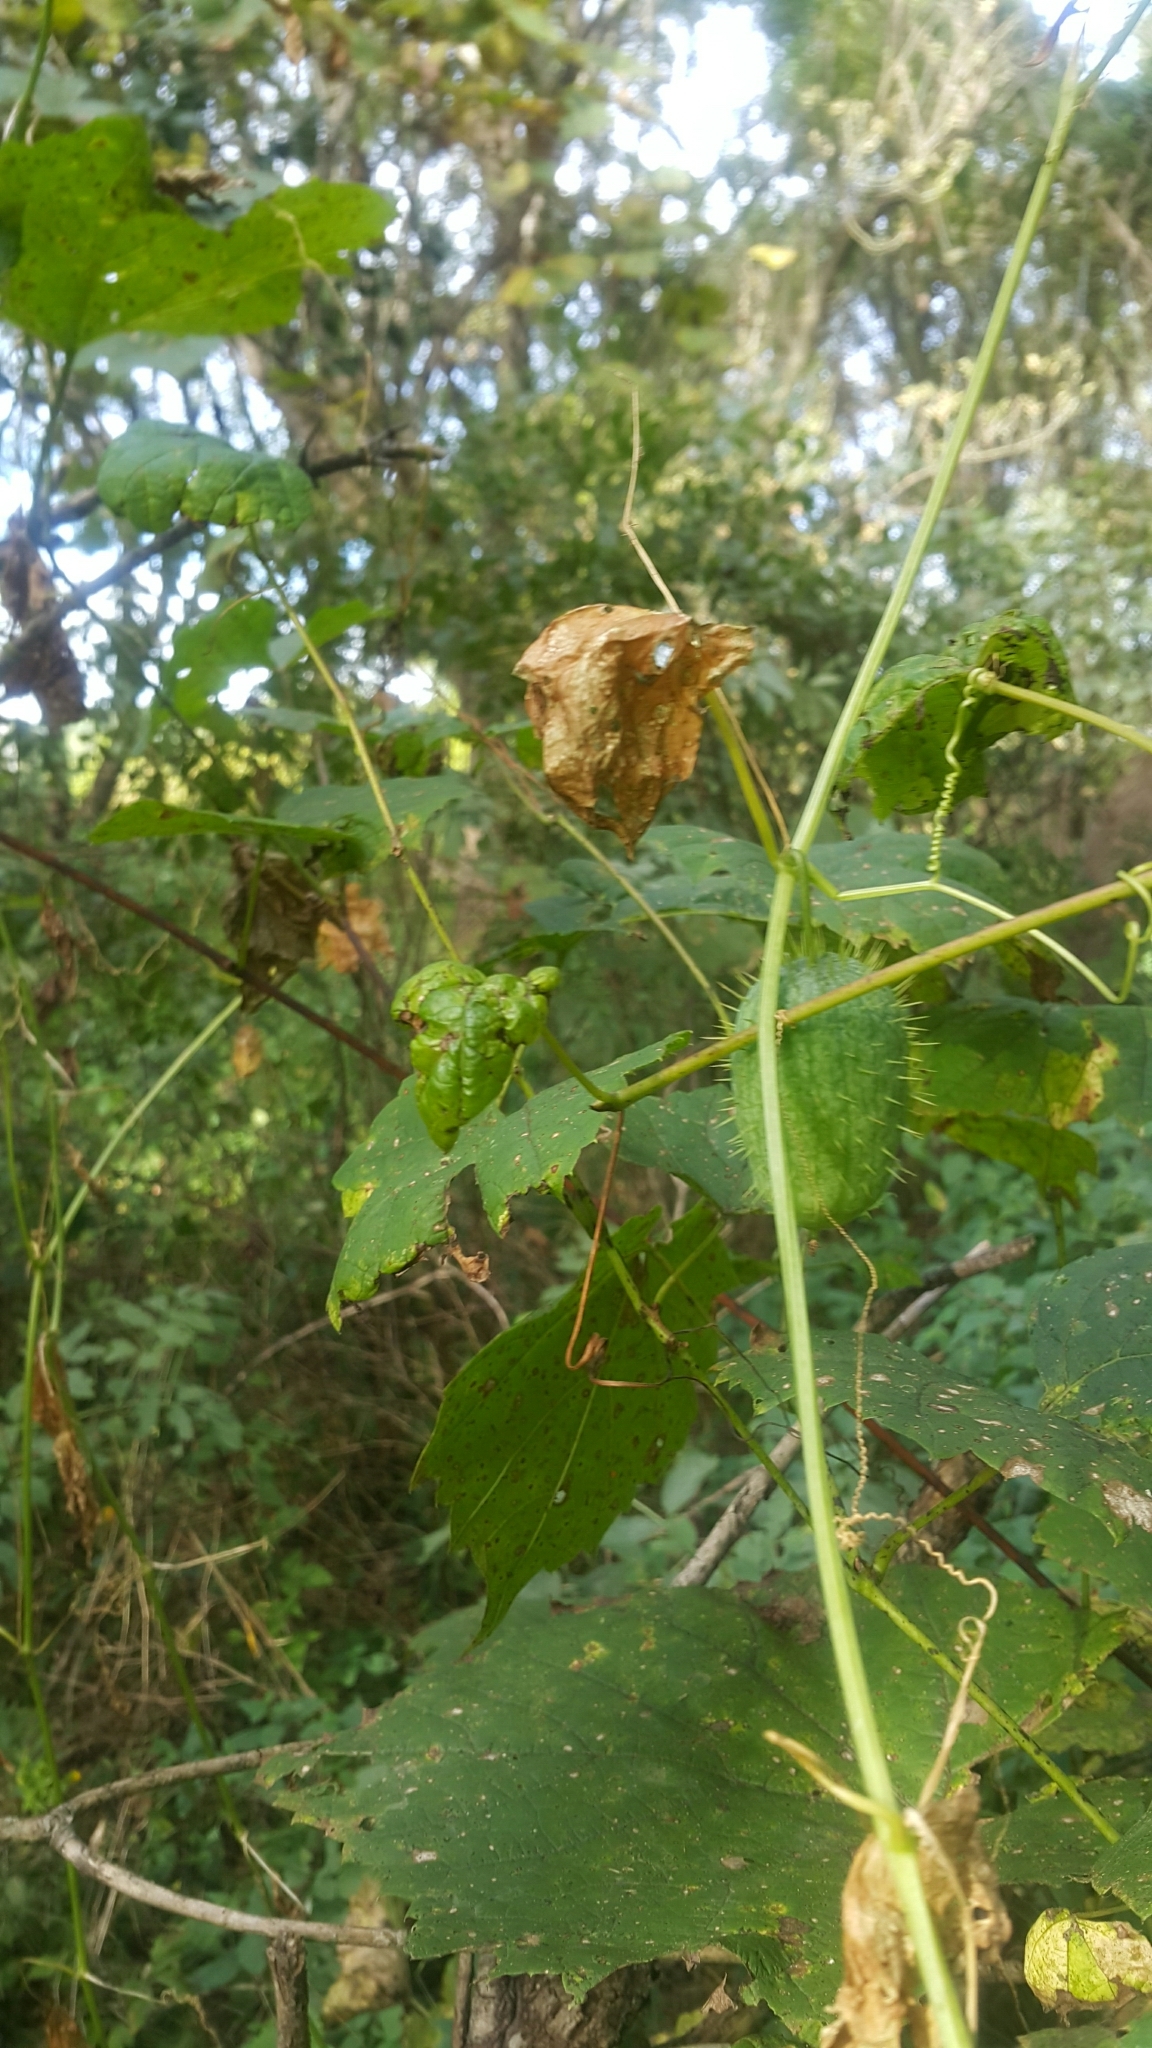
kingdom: Plantae
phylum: Tracheophyta
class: Magnoliopsida
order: Cucurbitales
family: Cucurbitaceae
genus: Echinocystis
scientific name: Echinocystis lobata
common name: Wild cucumber
